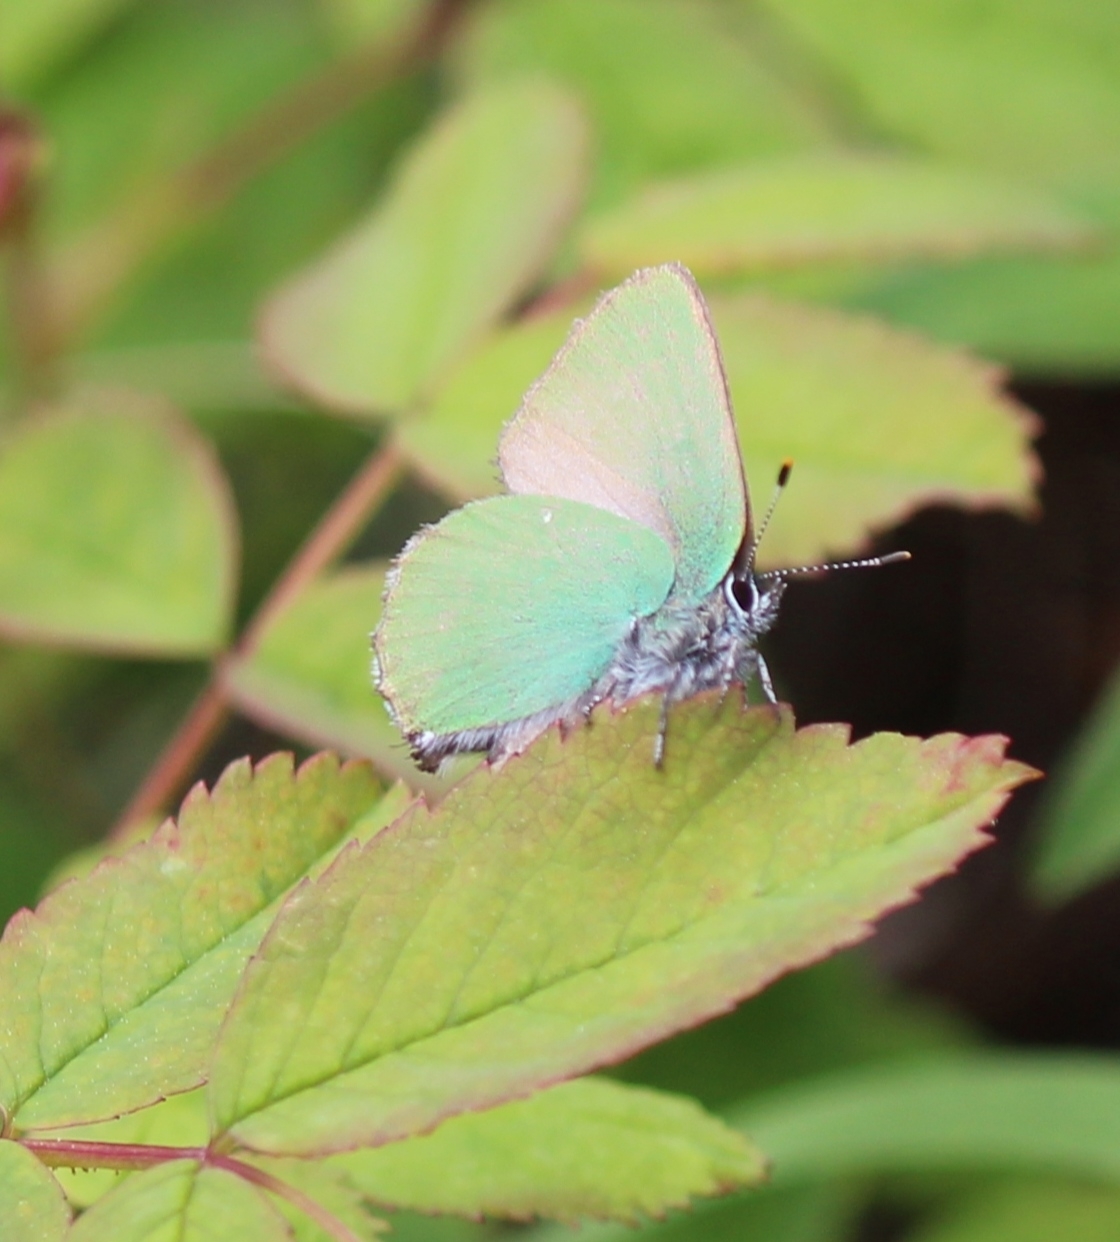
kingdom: Animalia
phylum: Arthropoda
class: Insecta
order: Lepidoptera
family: Lycaenidae
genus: Callophrys
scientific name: Callophrys rubi
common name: Green hairstreak
